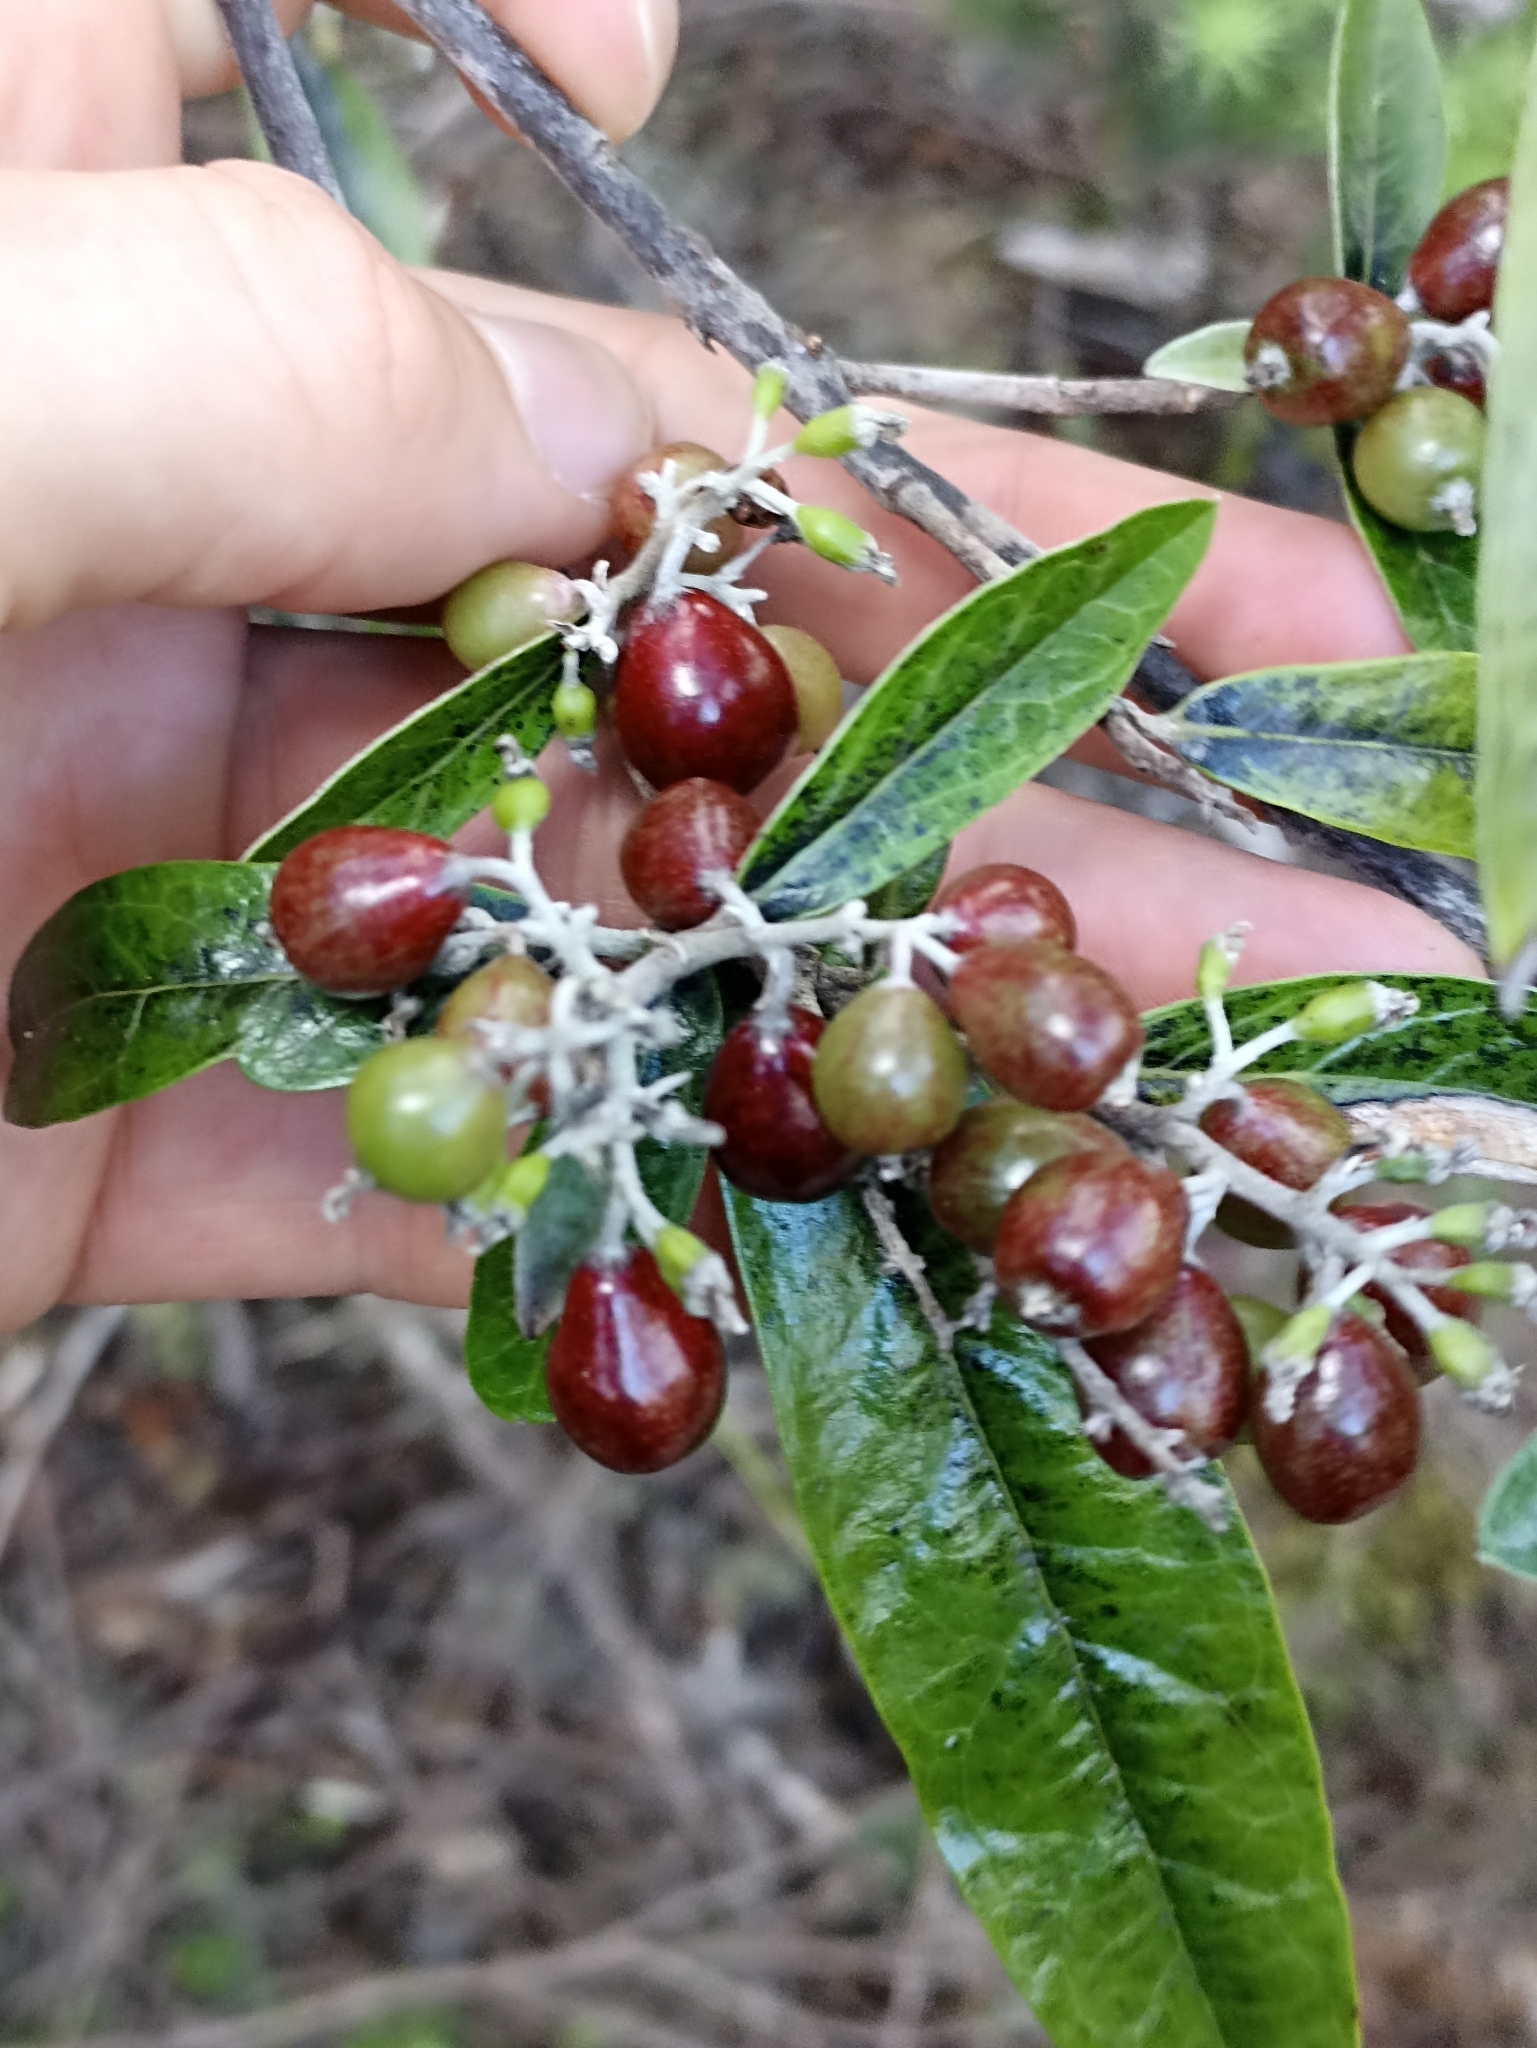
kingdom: Plantae
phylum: Tracheophyta
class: Magnoliopsida
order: Asterales
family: Argophyllaceae
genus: Corokia
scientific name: Corokia buddleioides
